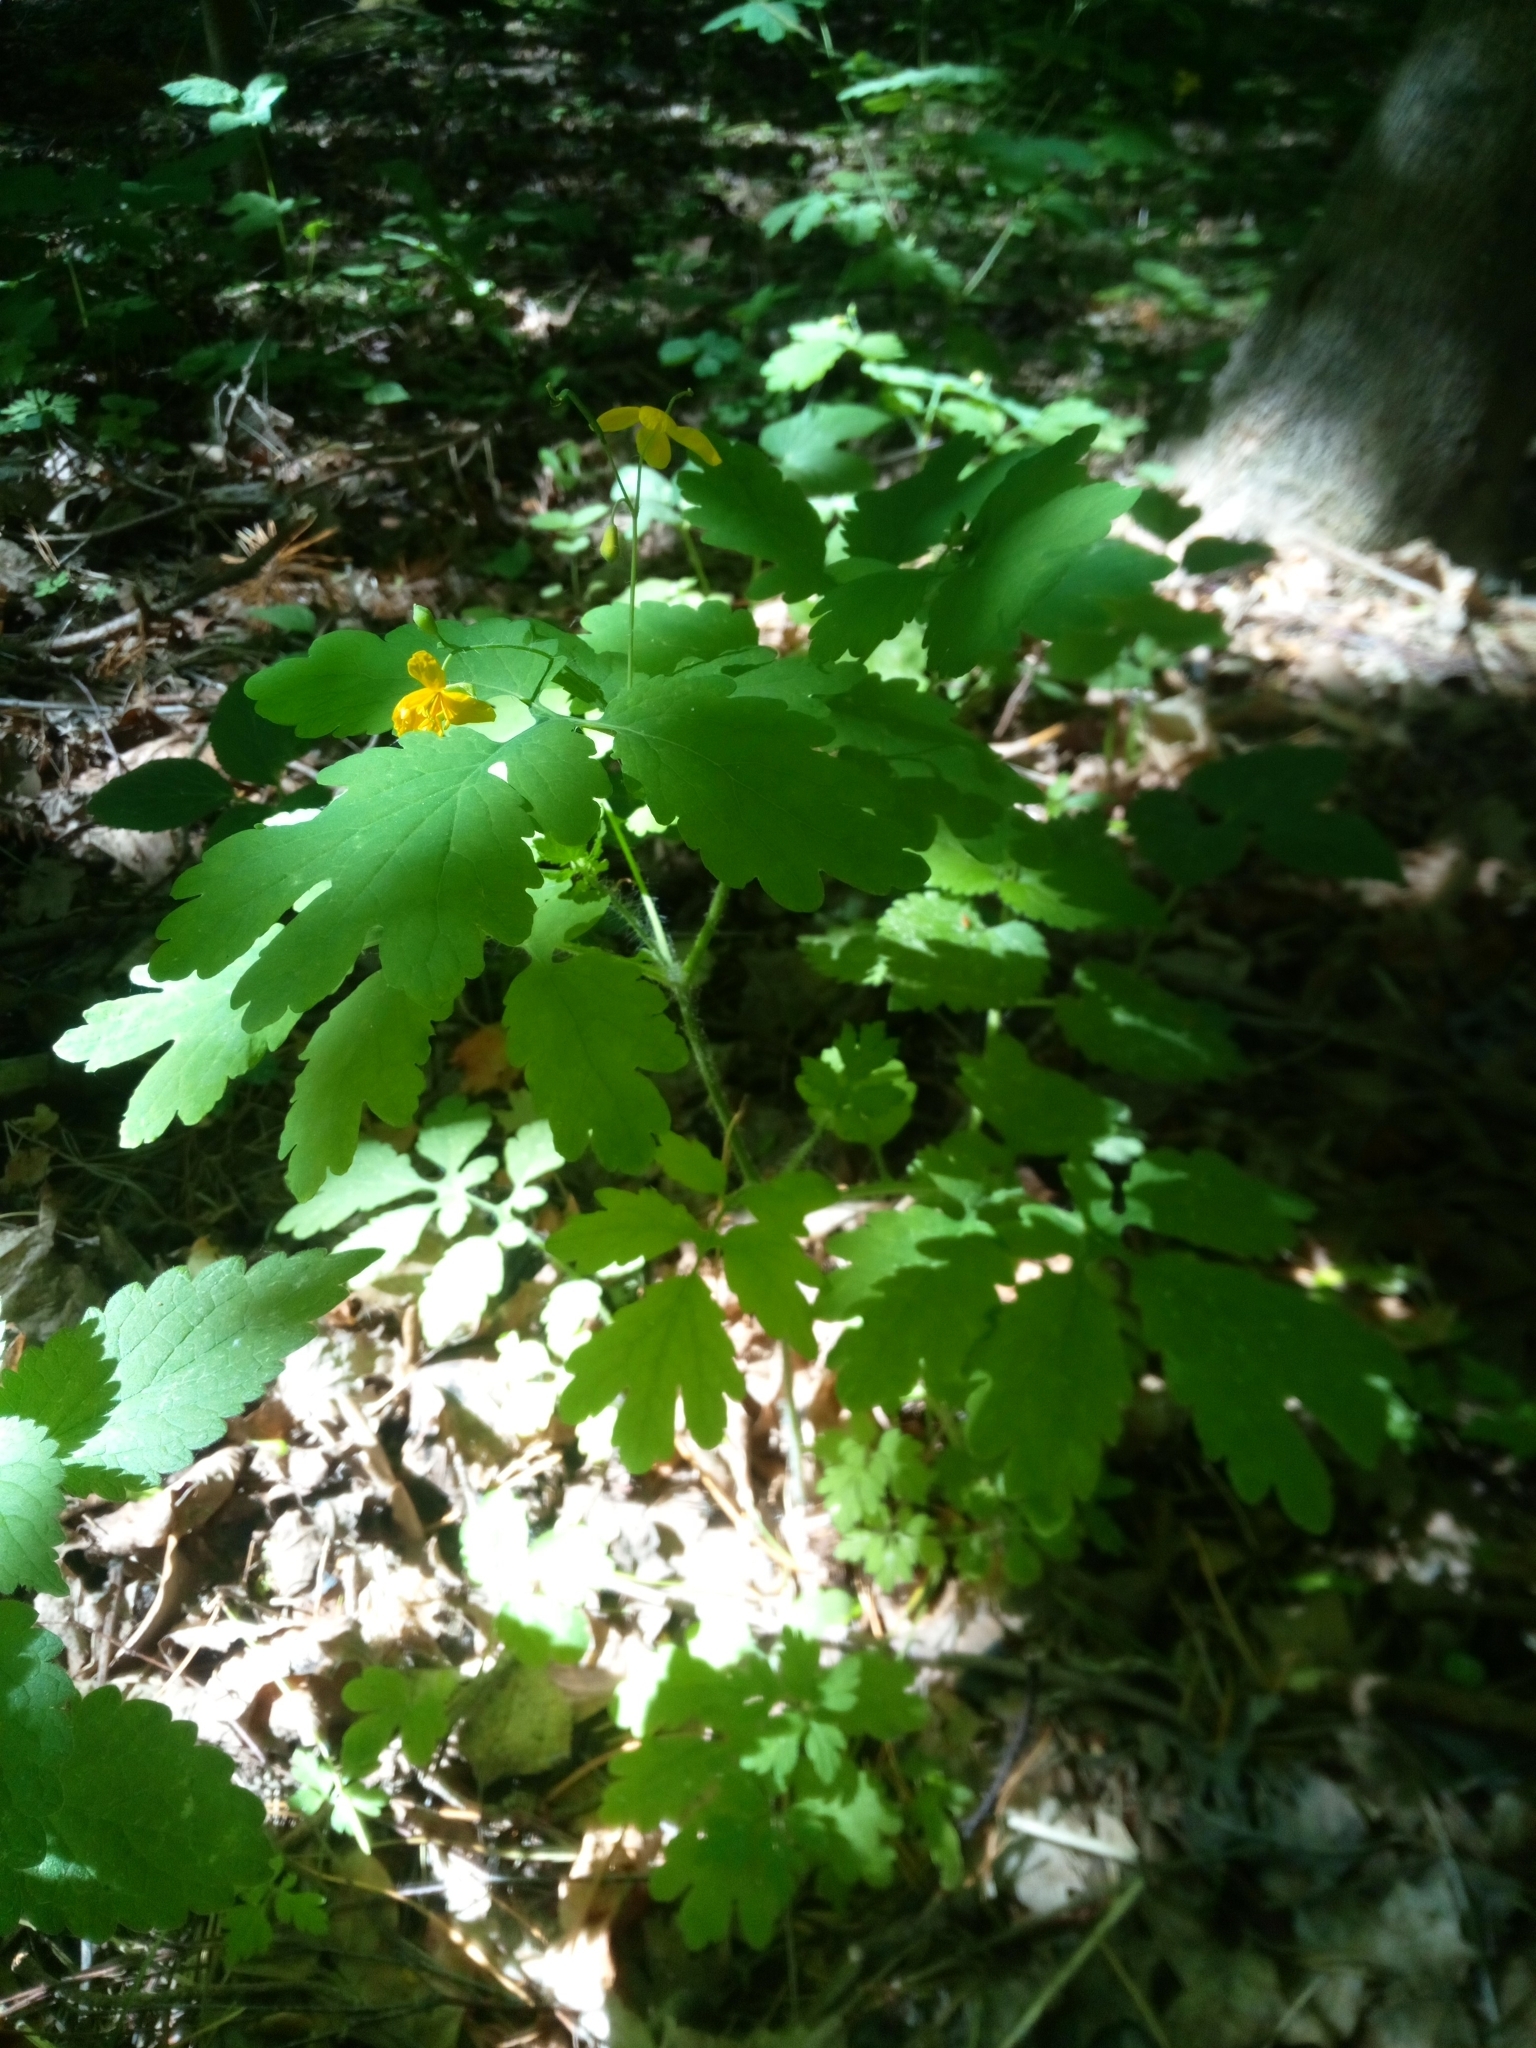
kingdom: Plantae
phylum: Tracheophyta
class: Magnoliopsida
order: Ranunculales
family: Papaveraceae
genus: Chelidonium
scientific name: Chelidonium majus
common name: Greater celandine
